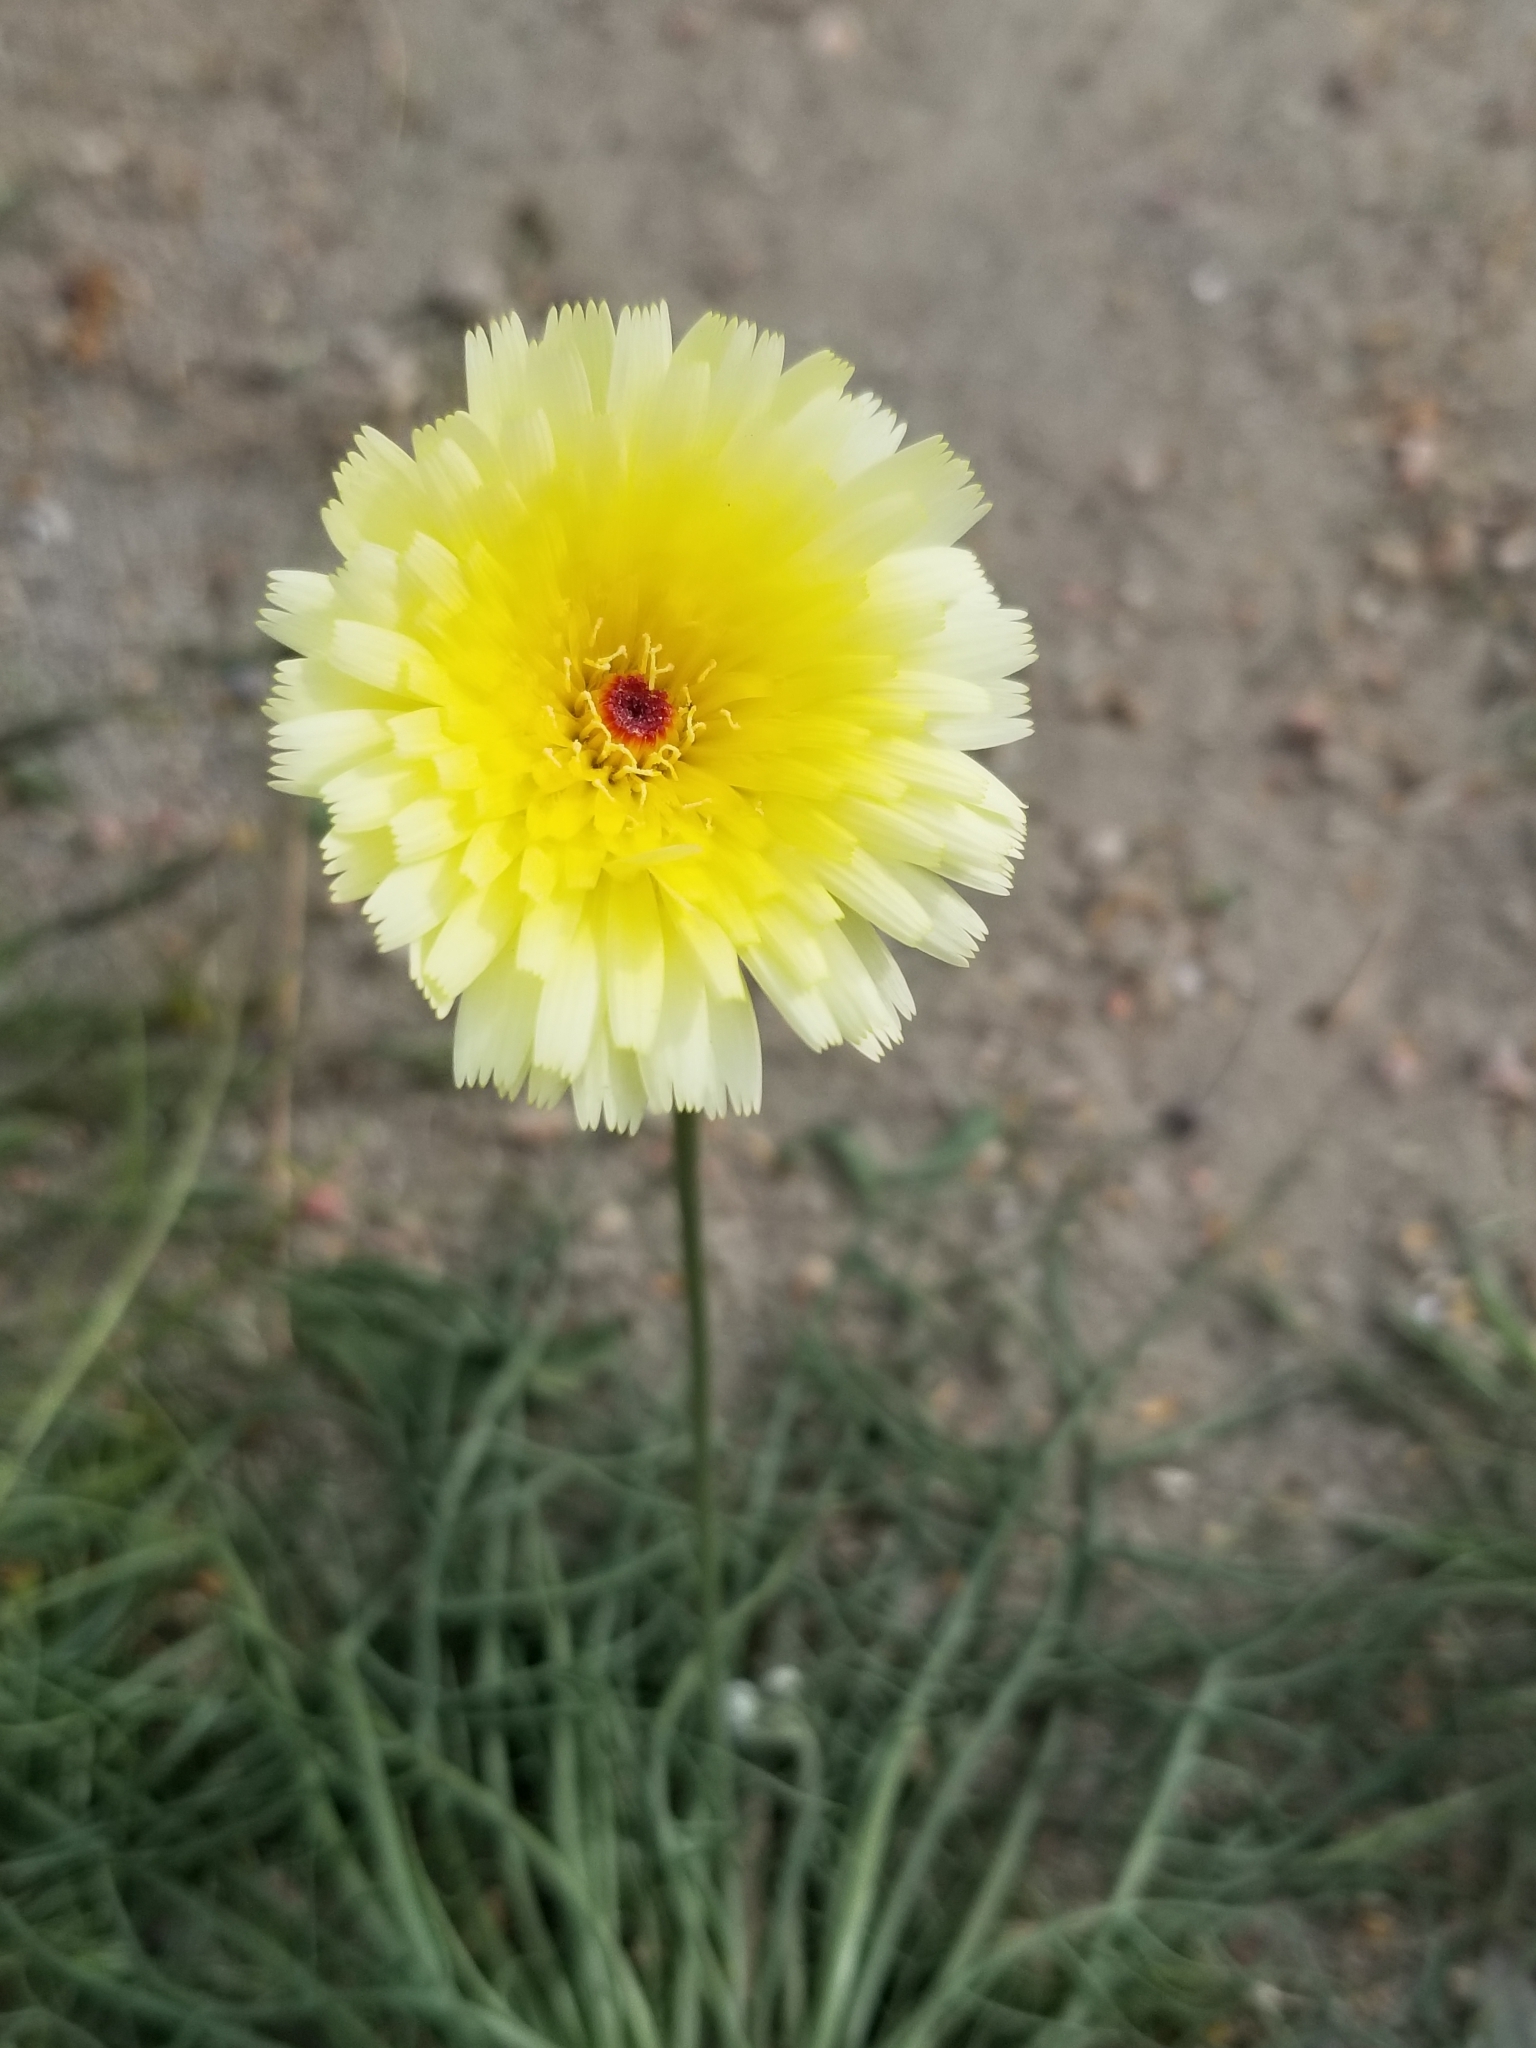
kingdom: Plantae
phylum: Tracheophyta
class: Magnoliopsida
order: Asterales
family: Asteraceae
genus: Malacothrix
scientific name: Malacothrix glabrata
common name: Smooth desert-dandelion
